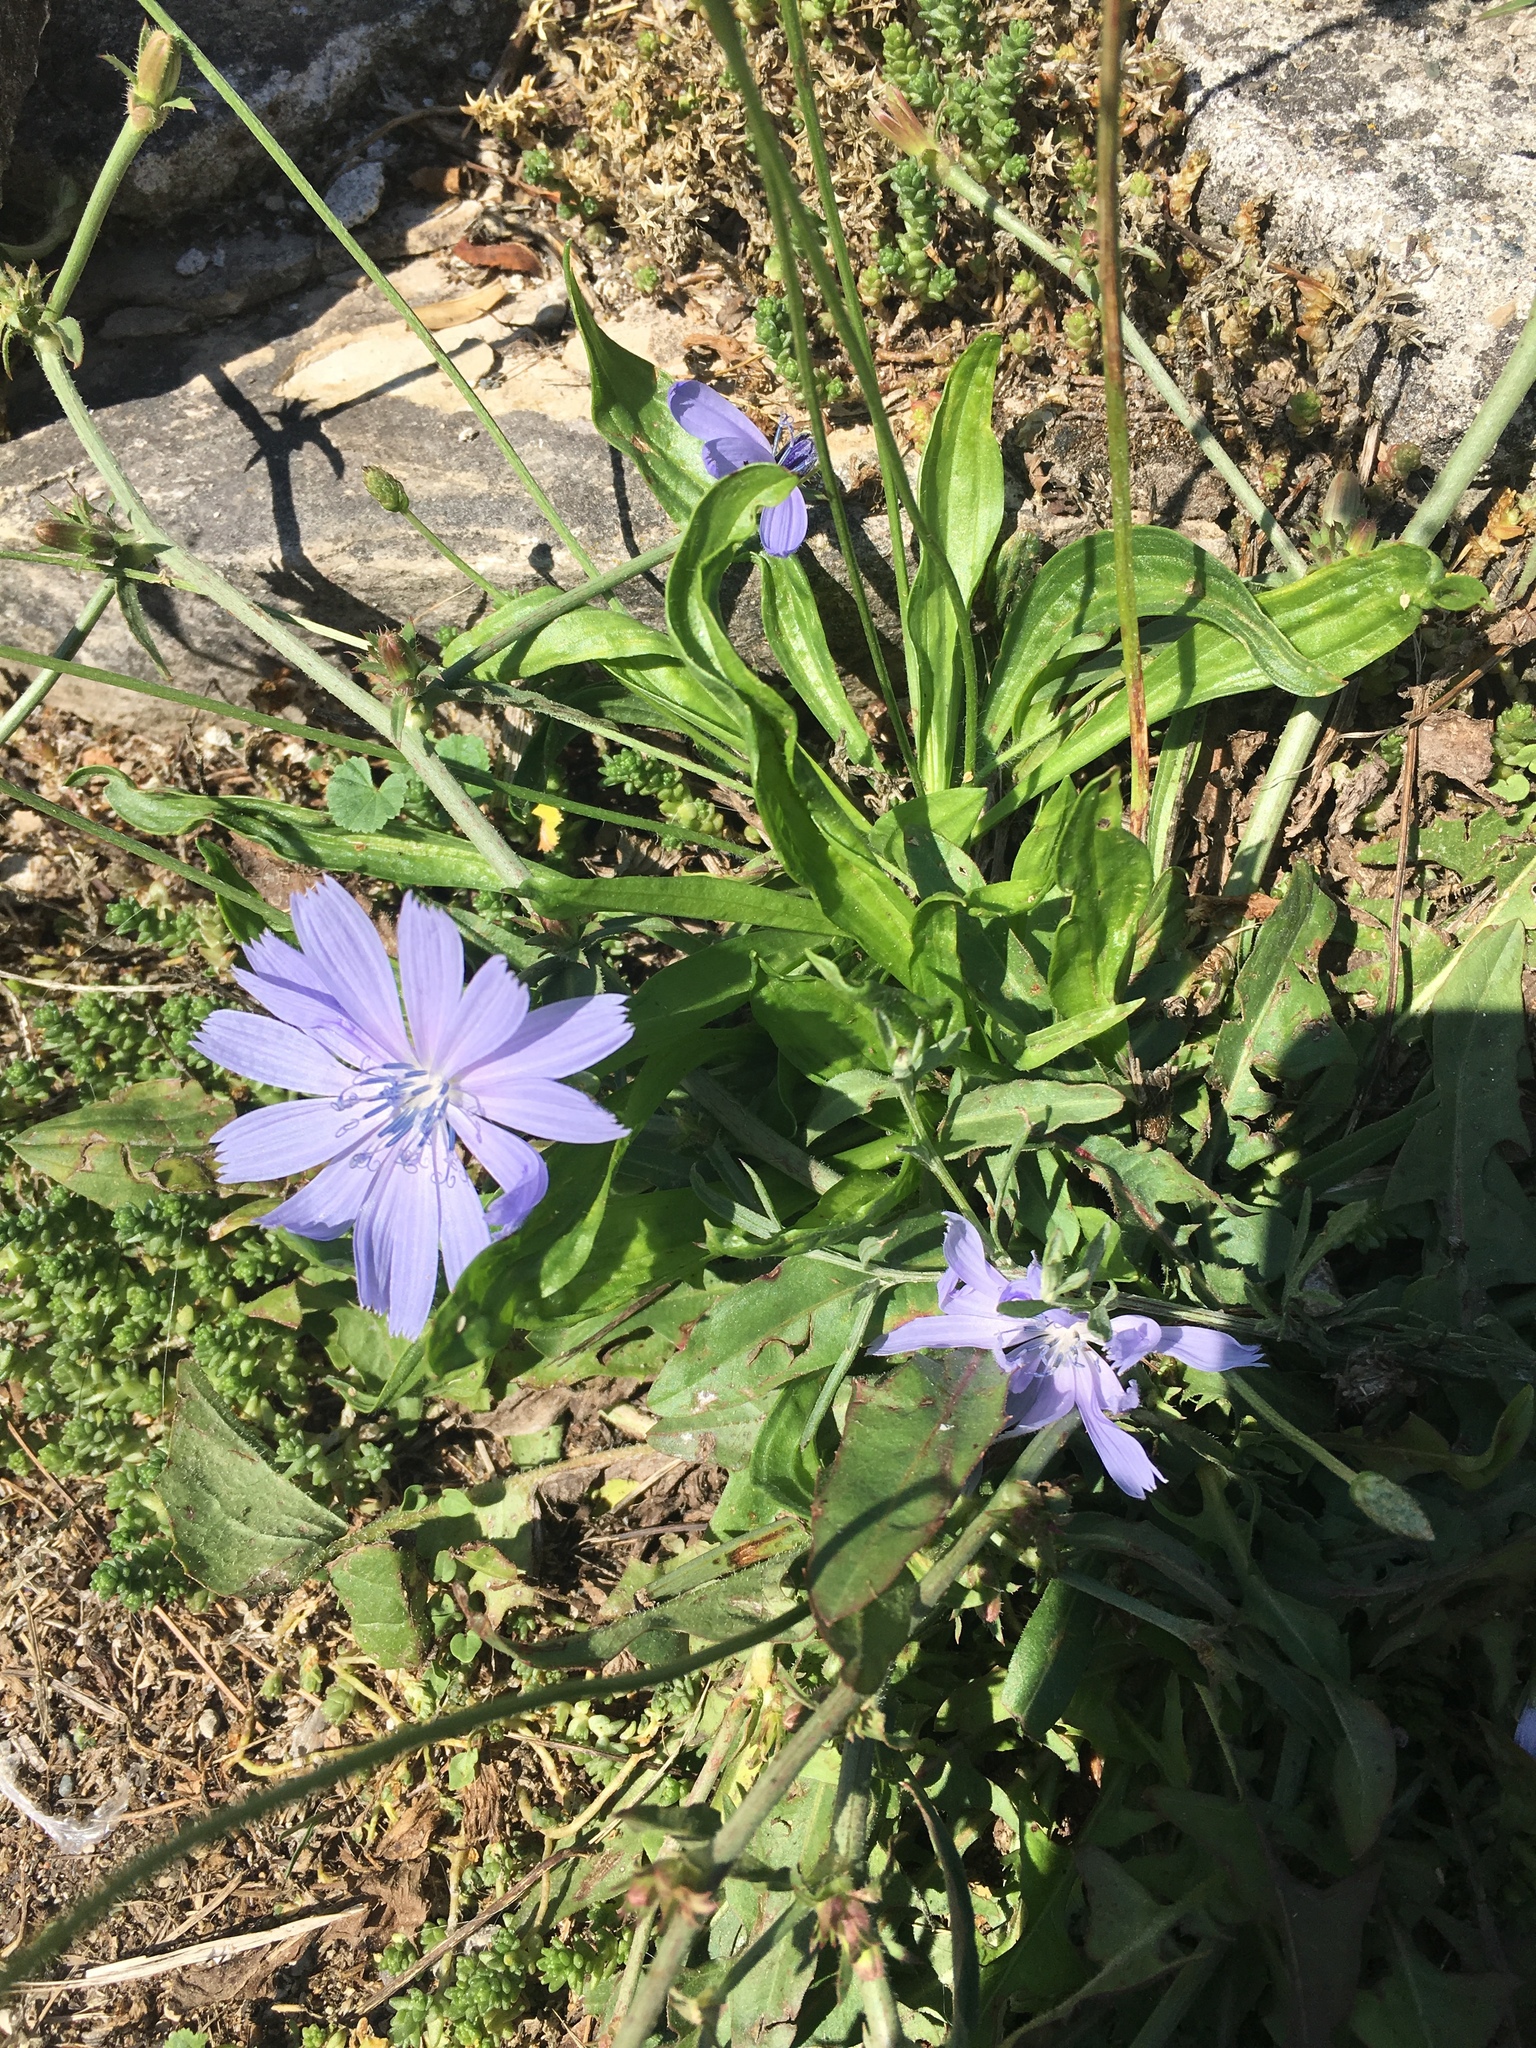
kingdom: Plantae
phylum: Tracheophyta
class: Magnoliopsida
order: Asterales
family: Asteraceae
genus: Cichorium
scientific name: Cichorium intybus
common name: Chicory
